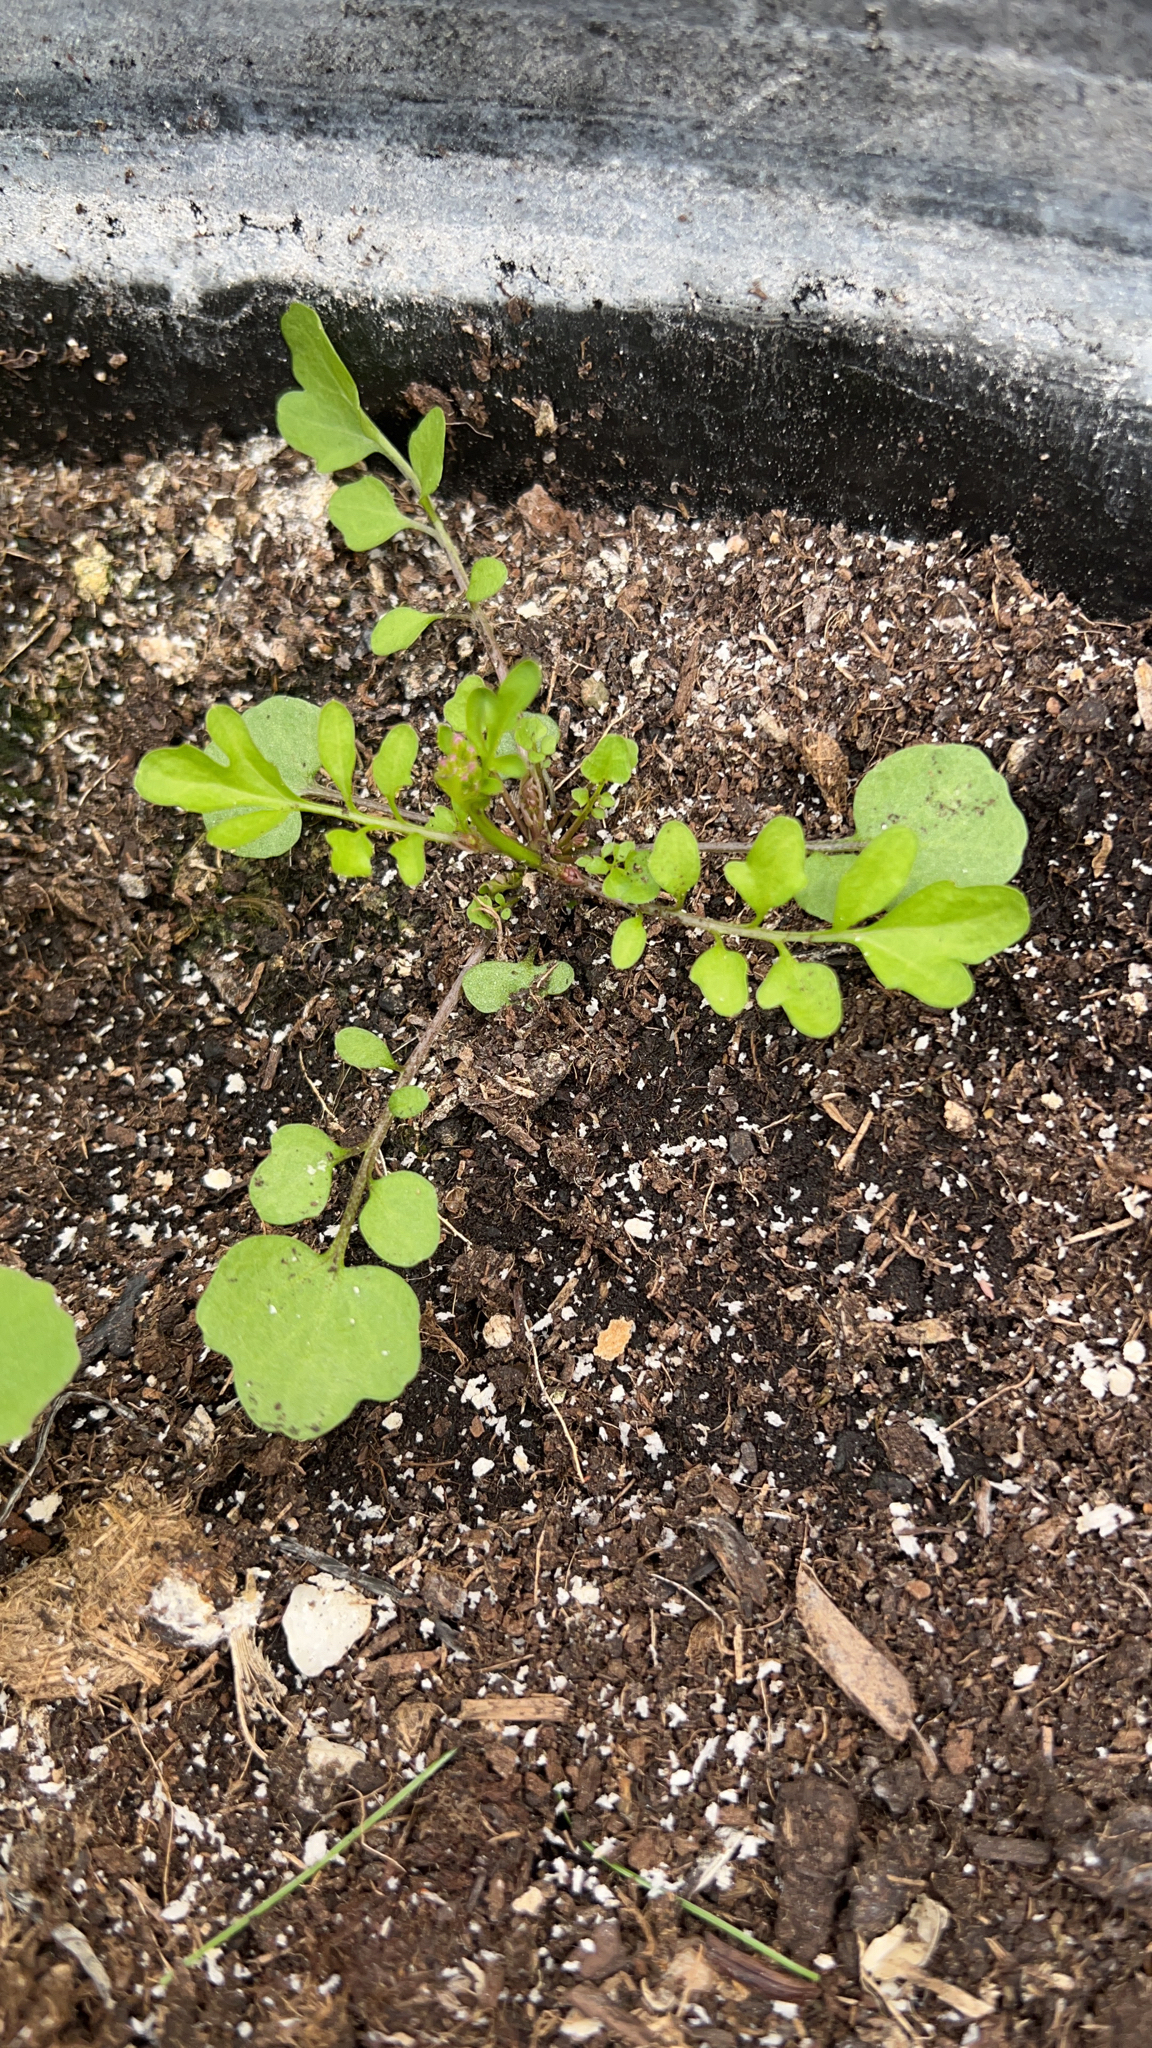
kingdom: Plantae
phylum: Tracheophyta
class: Magnoliopsida
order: Brassicales
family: Brassicaceae
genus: Cardamine
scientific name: Cardamine occulta
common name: Asian wavy bittercress
